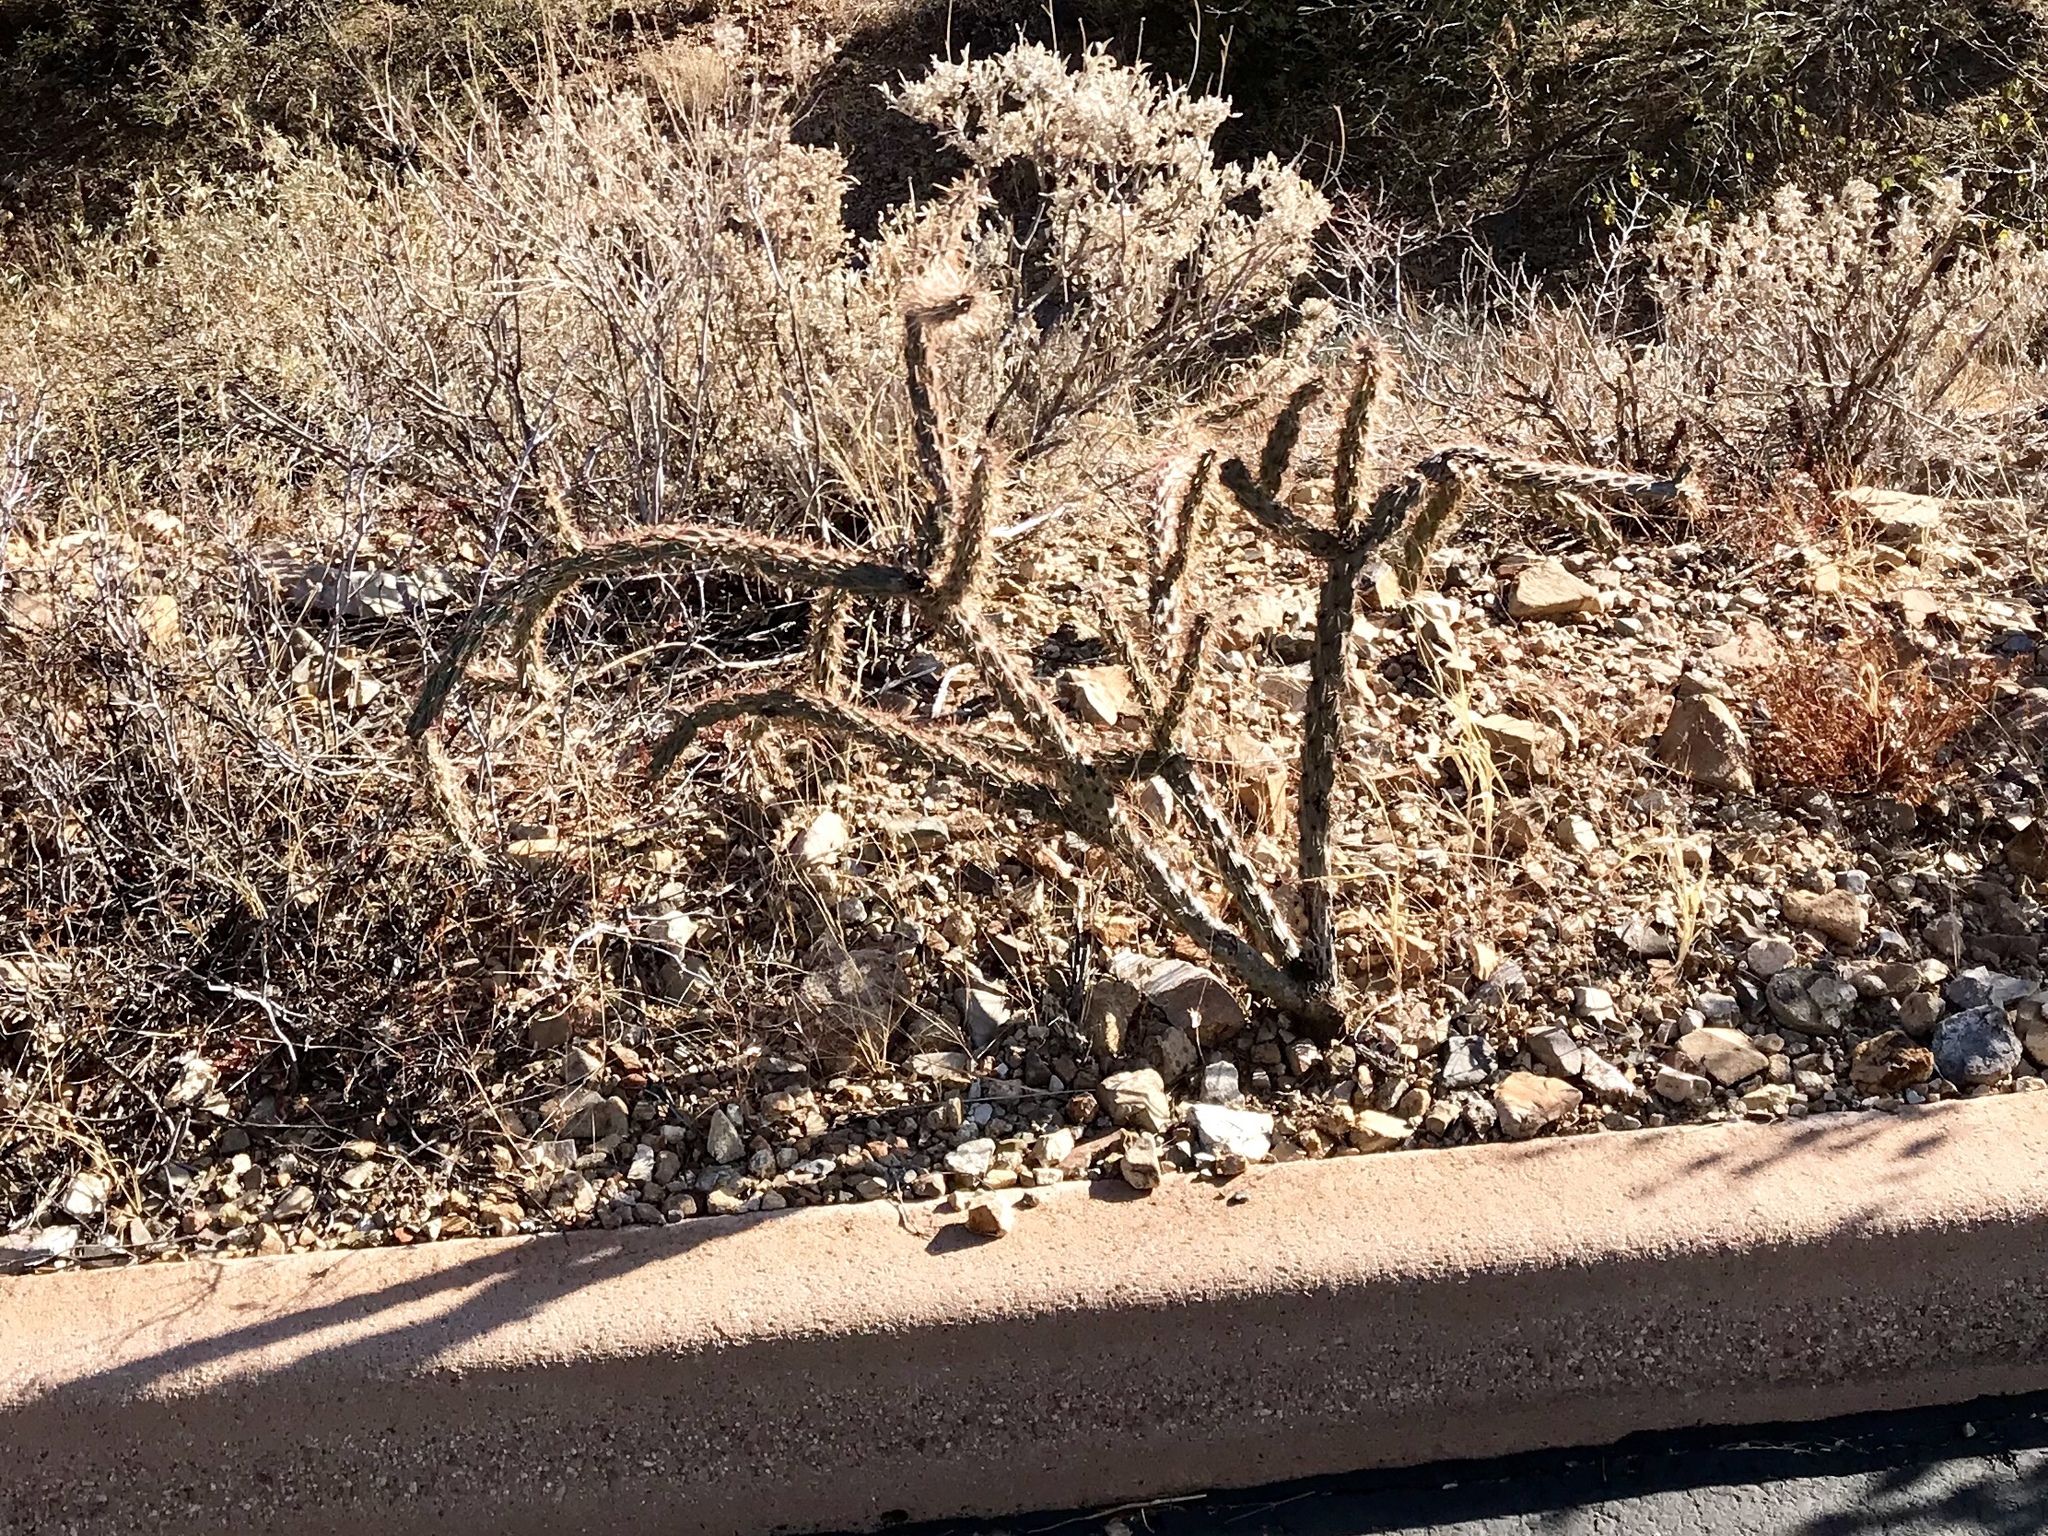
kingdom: Plantae
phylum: Tracheophyta
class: Magnoliopsida
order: Caryophyllales
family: Cactaceae
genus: Cylindropuntia
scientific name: Cylindropuntia imbricata
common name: Candelabrum cactus
